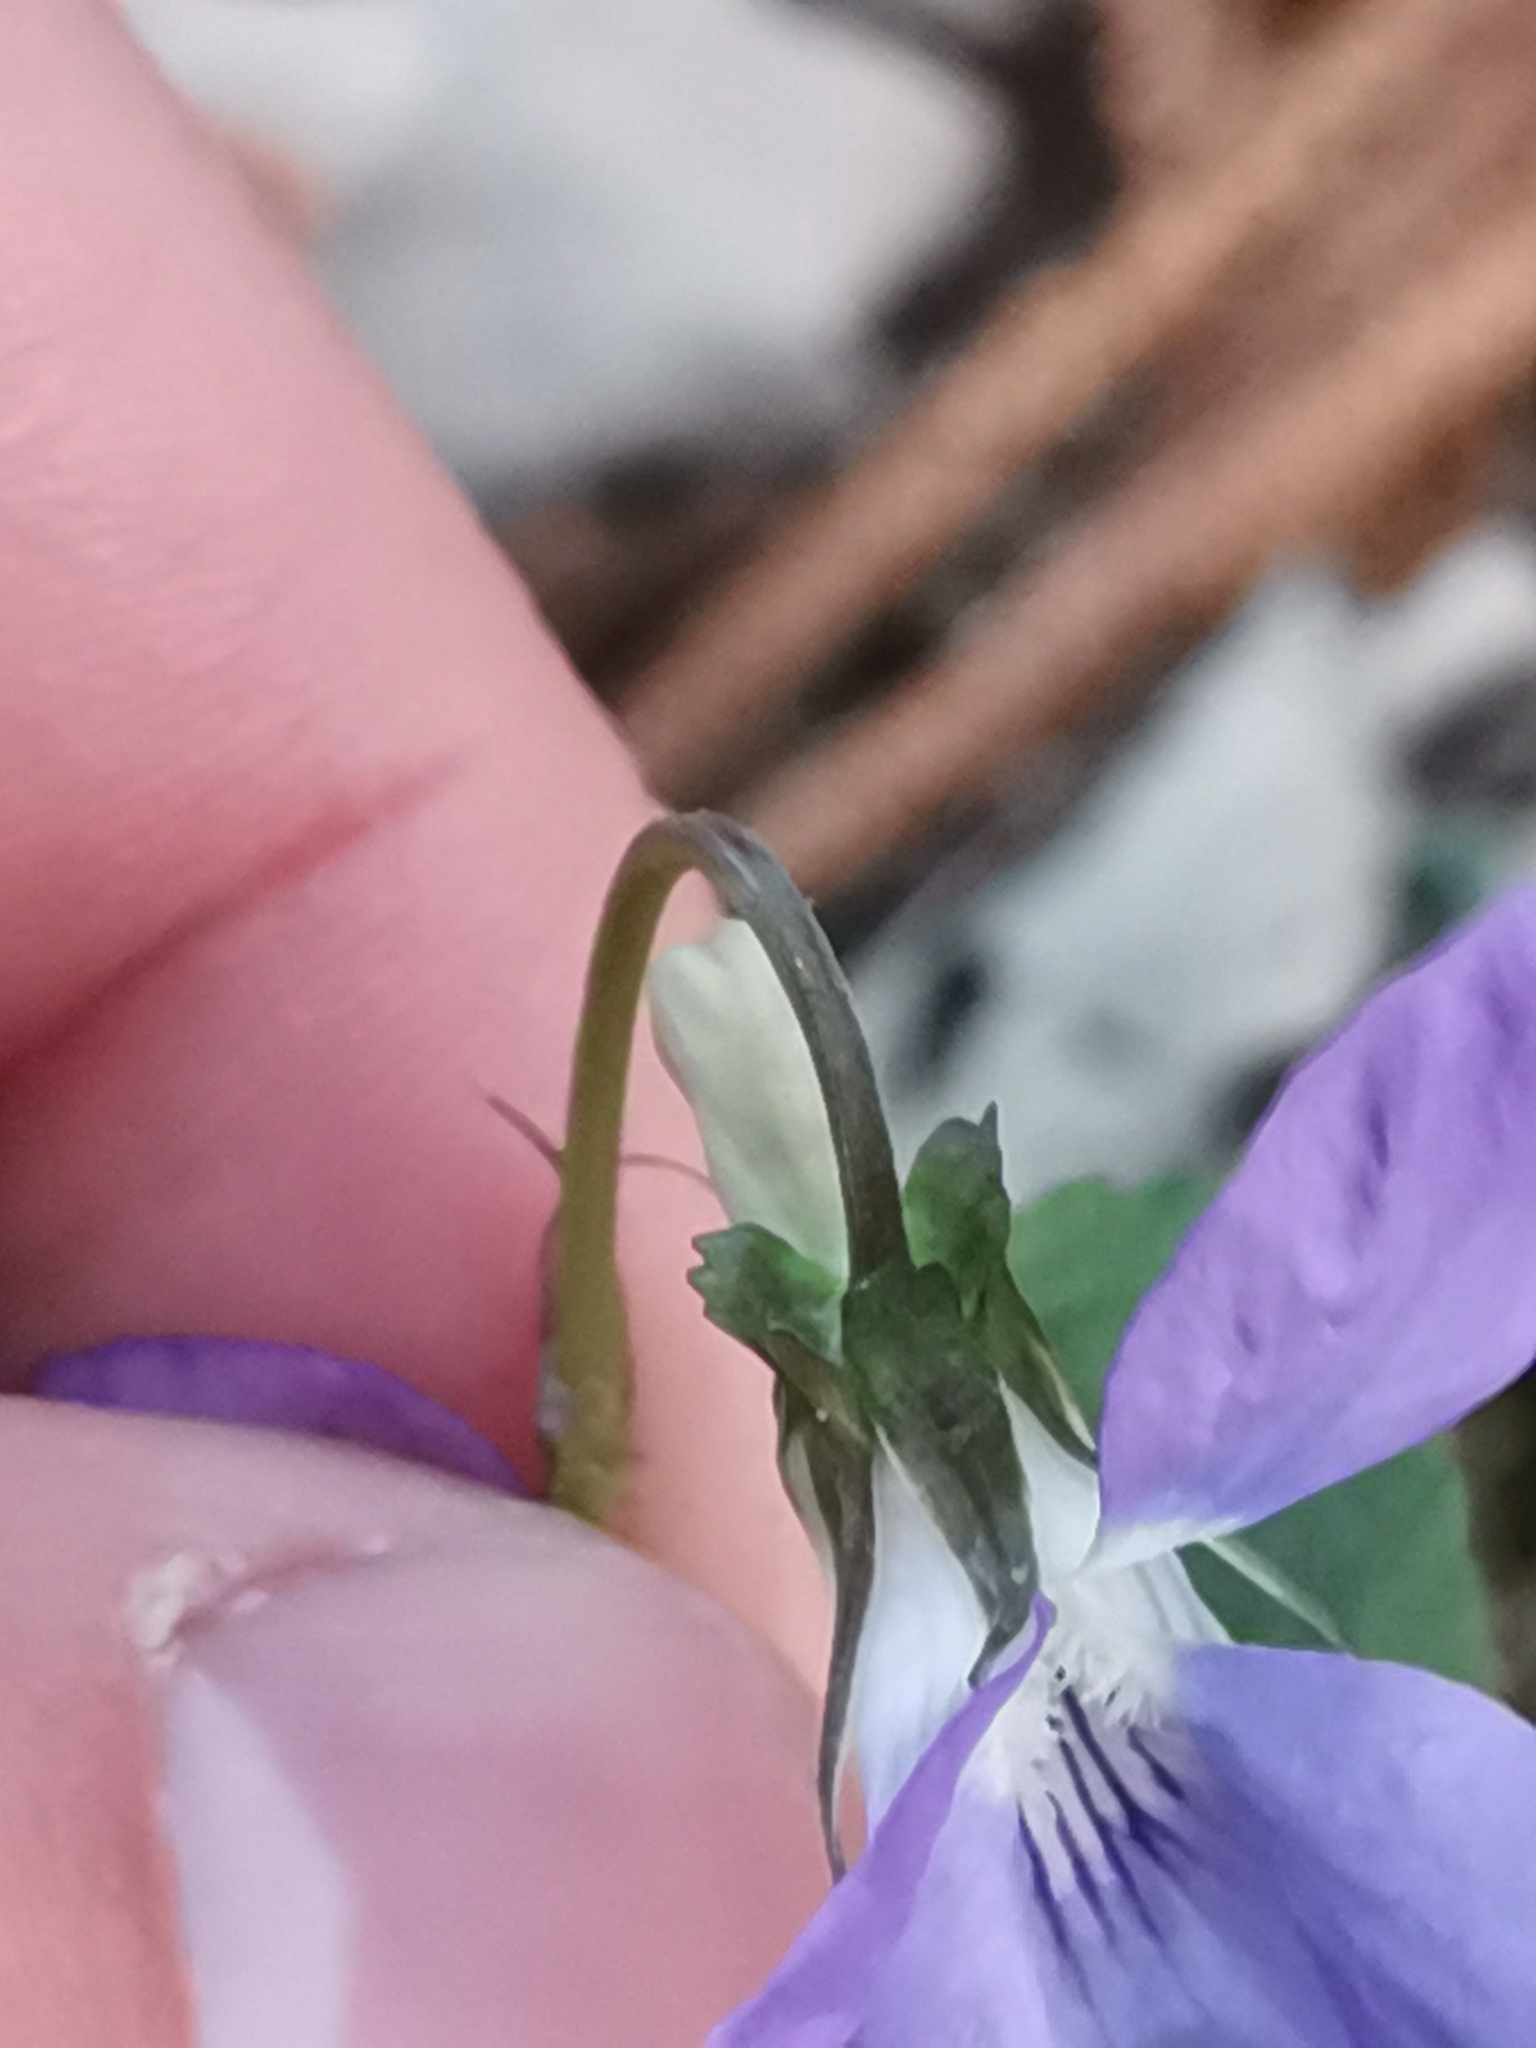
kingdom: Plantae
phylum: Tracheophyta
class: Magnoliopsida
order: Malpighiales
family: Violaceae
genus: Viola
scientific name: Viola riviniana
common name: Common dog-violet
